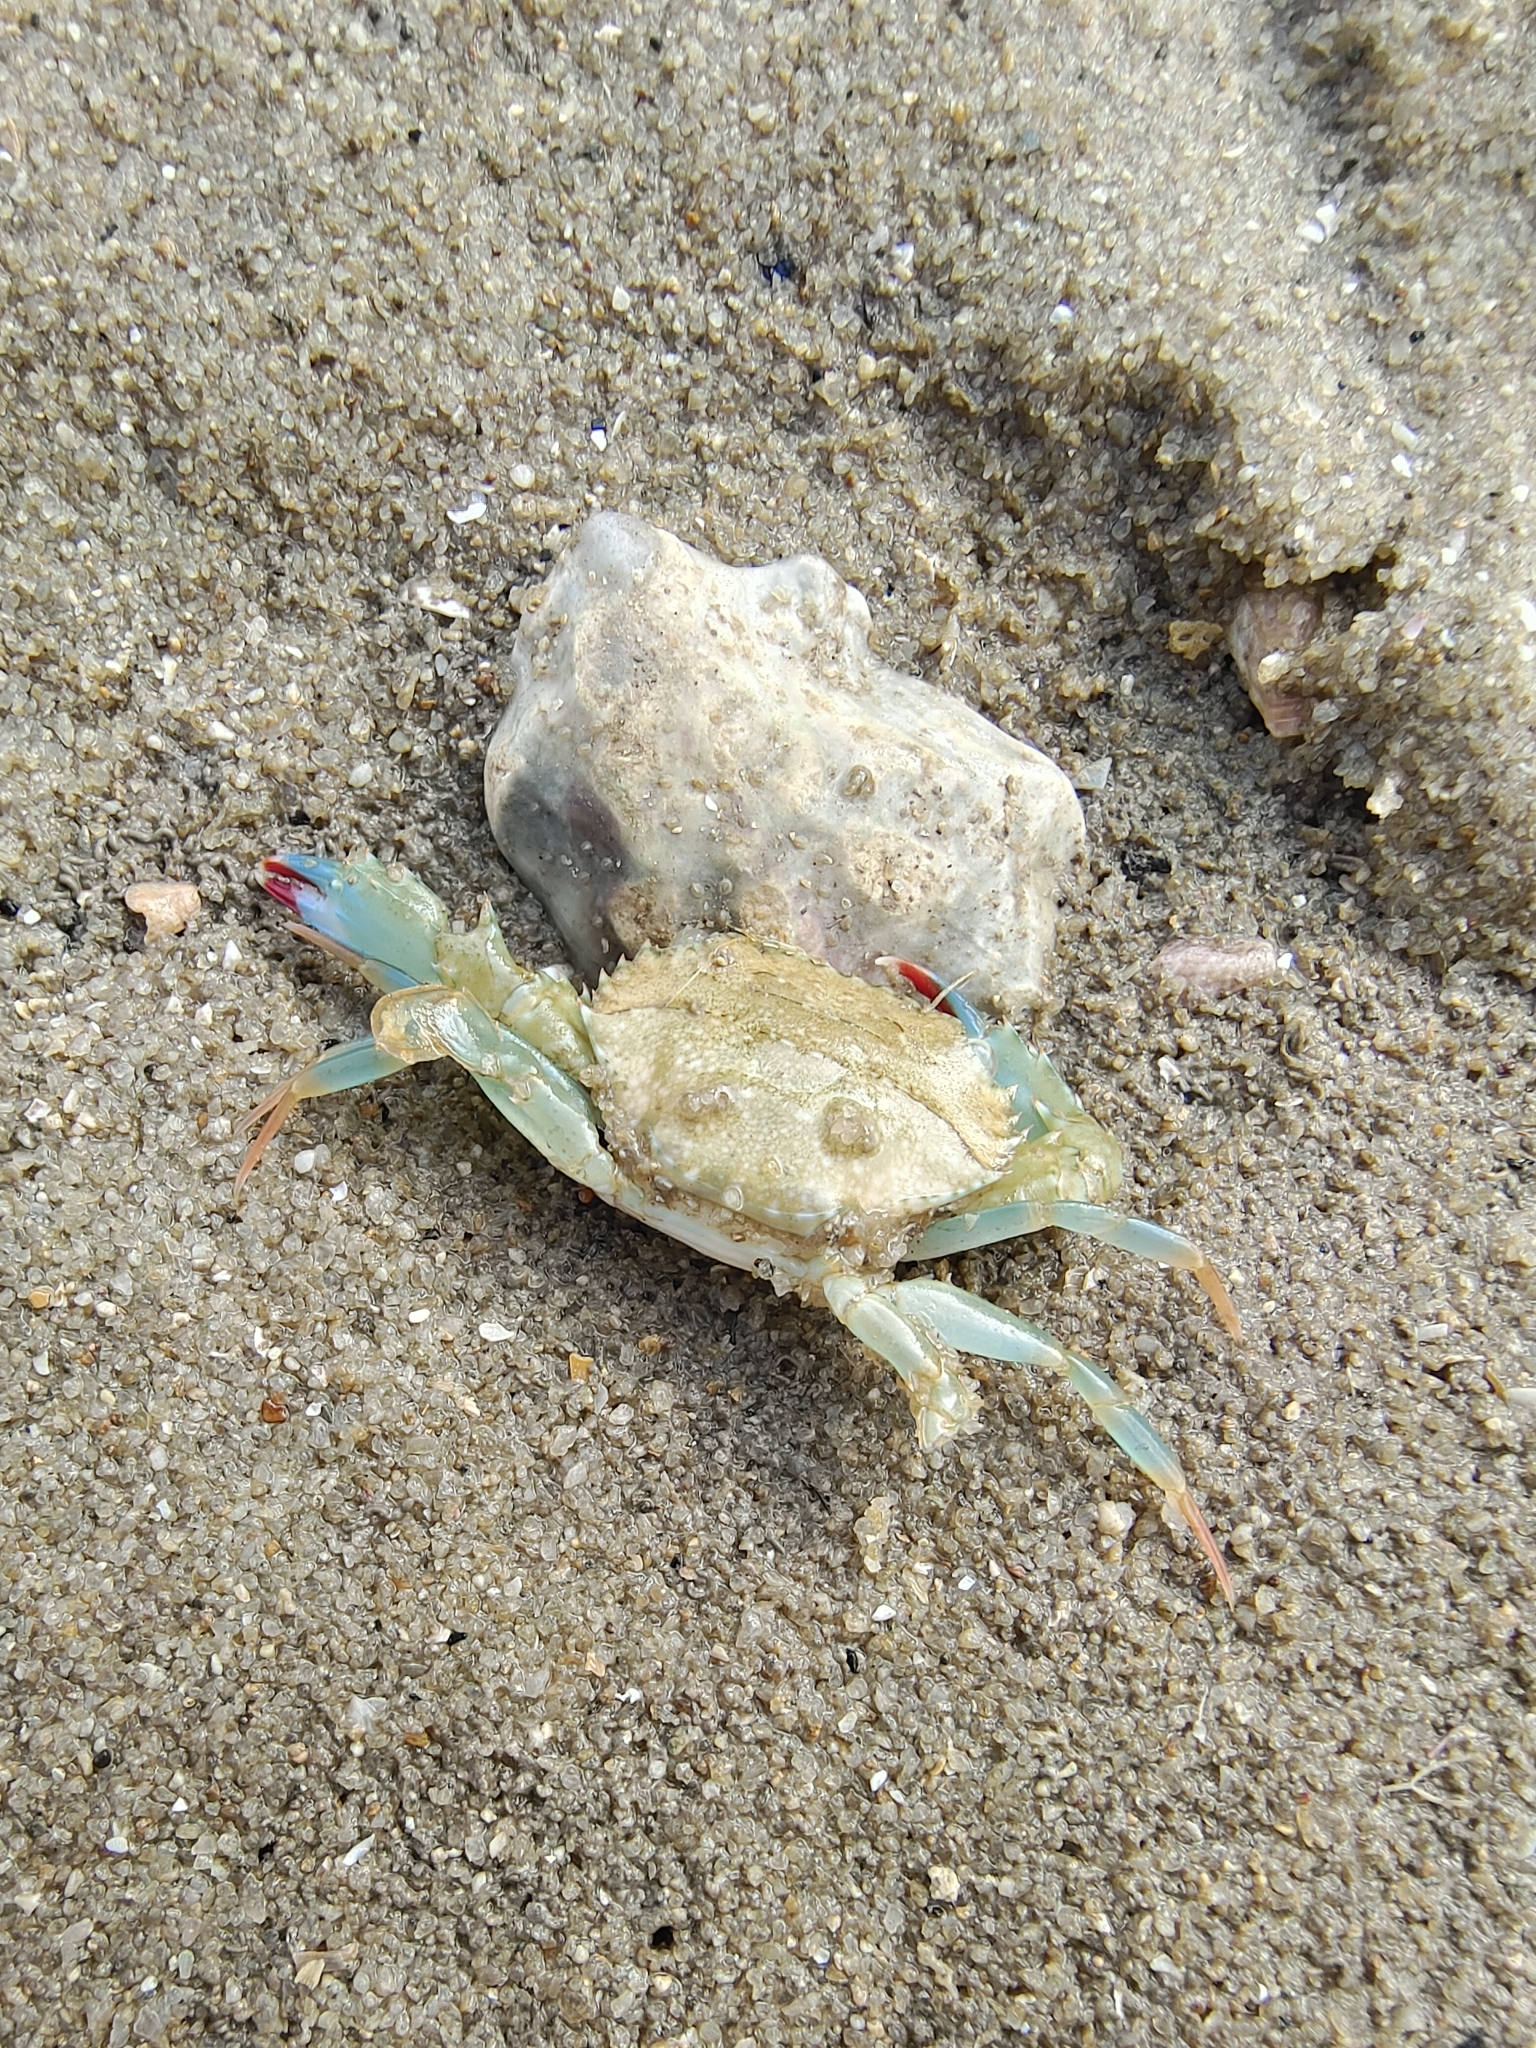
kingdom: Animalia
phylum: Arthropoda
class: Malacostraca
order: Decapoda
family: Portunidae
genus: Thalamita
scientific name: Thalamita crenata
